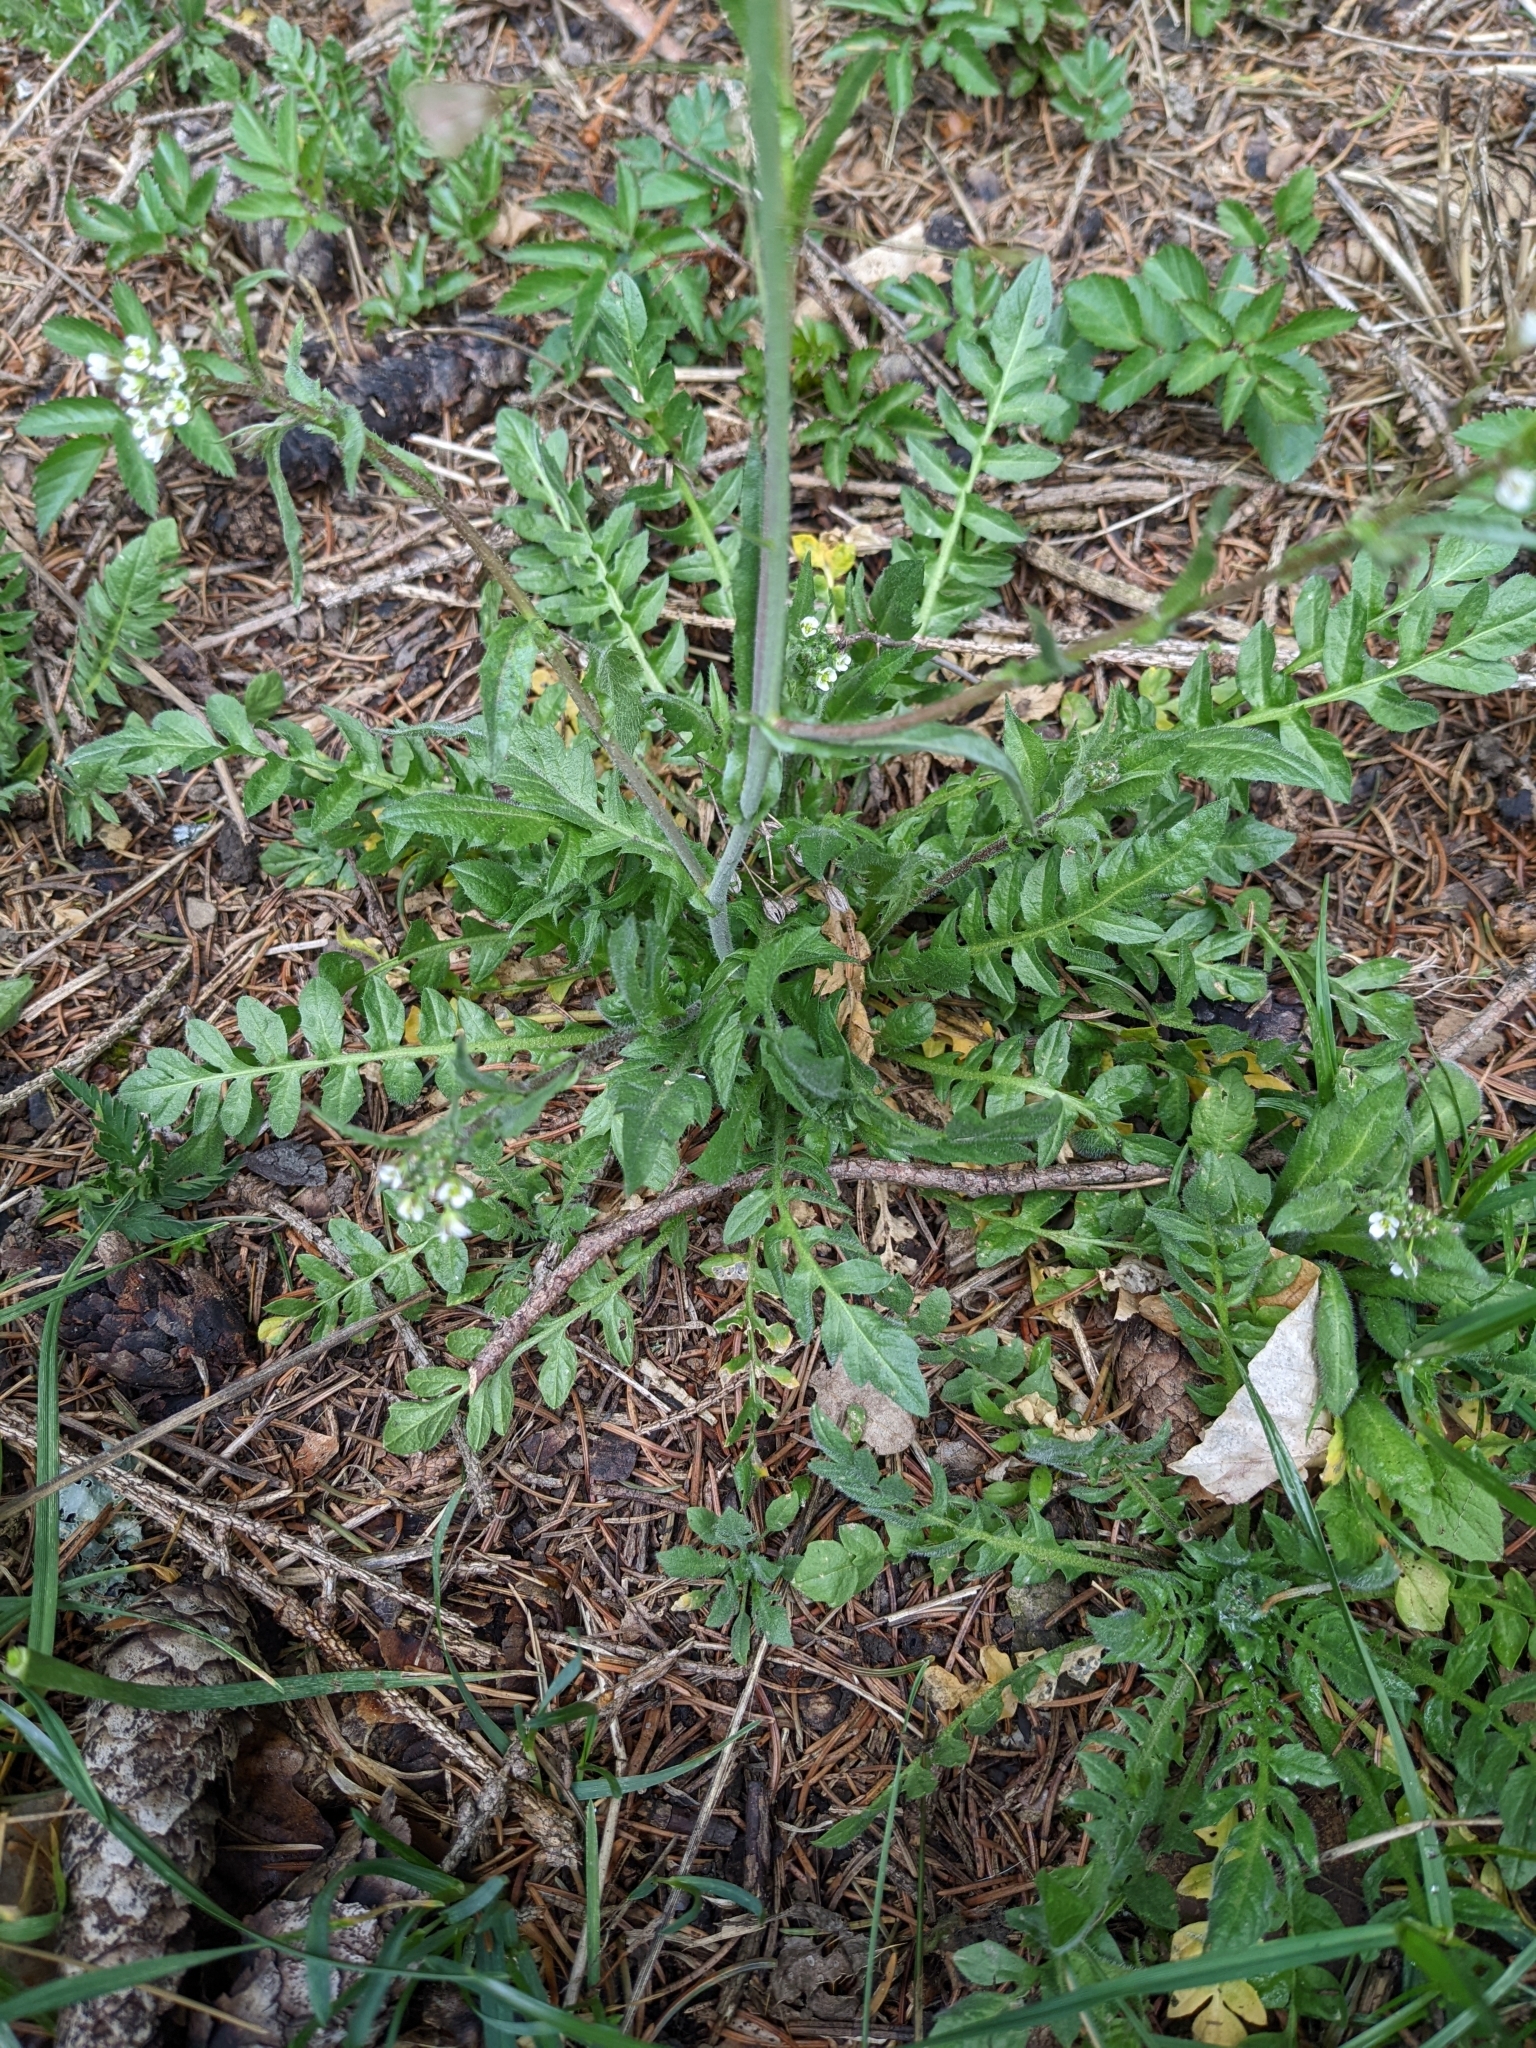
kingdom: Plantae
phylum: Tracheophyta
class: Magnoliopsida
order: Brassicales
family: Brassicaceae
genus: Capsella
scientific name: Capsella bursa-pastoris
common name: Shepherd's purse
